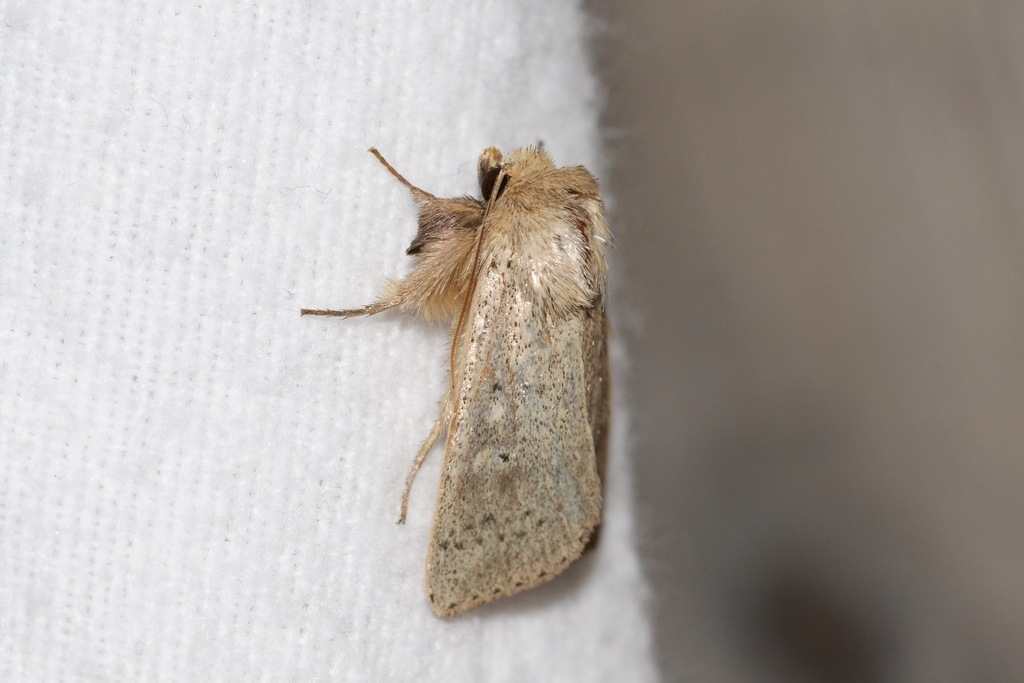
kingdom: Animalia
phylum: Arthropoda
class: Insecta
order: Lepidoptera
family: Noctuidae
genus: Leucania
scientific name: Leucania ursula
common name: Ursula wainscot
